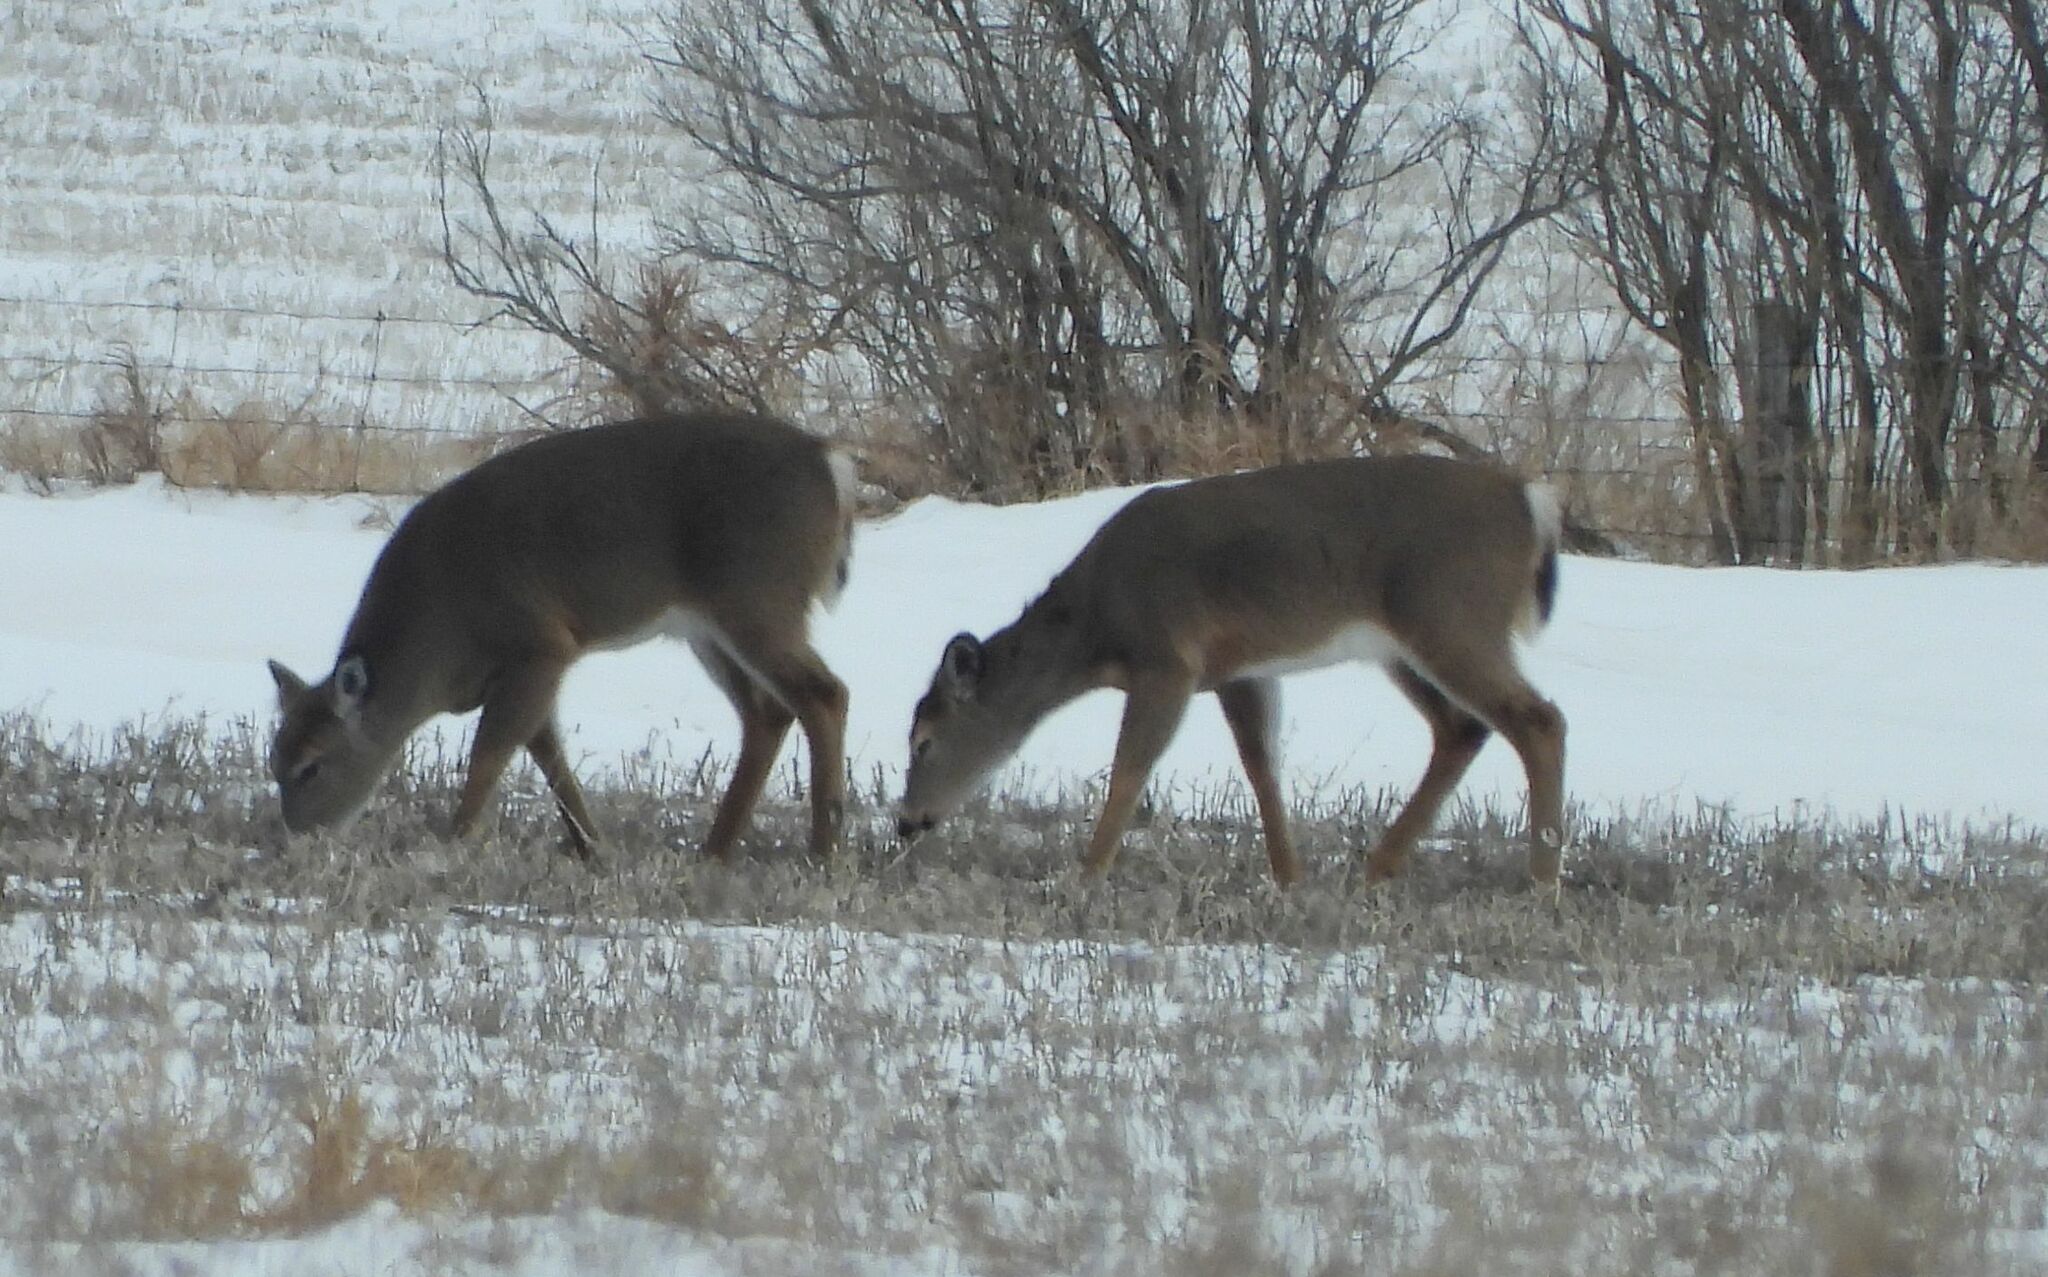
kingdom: Animalia
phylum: Chordata
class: Mammalia
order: Artiodactyla
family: Cervidae
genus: Odocoileus
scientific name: Odocoileus virginianus
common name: White-tailed deer
